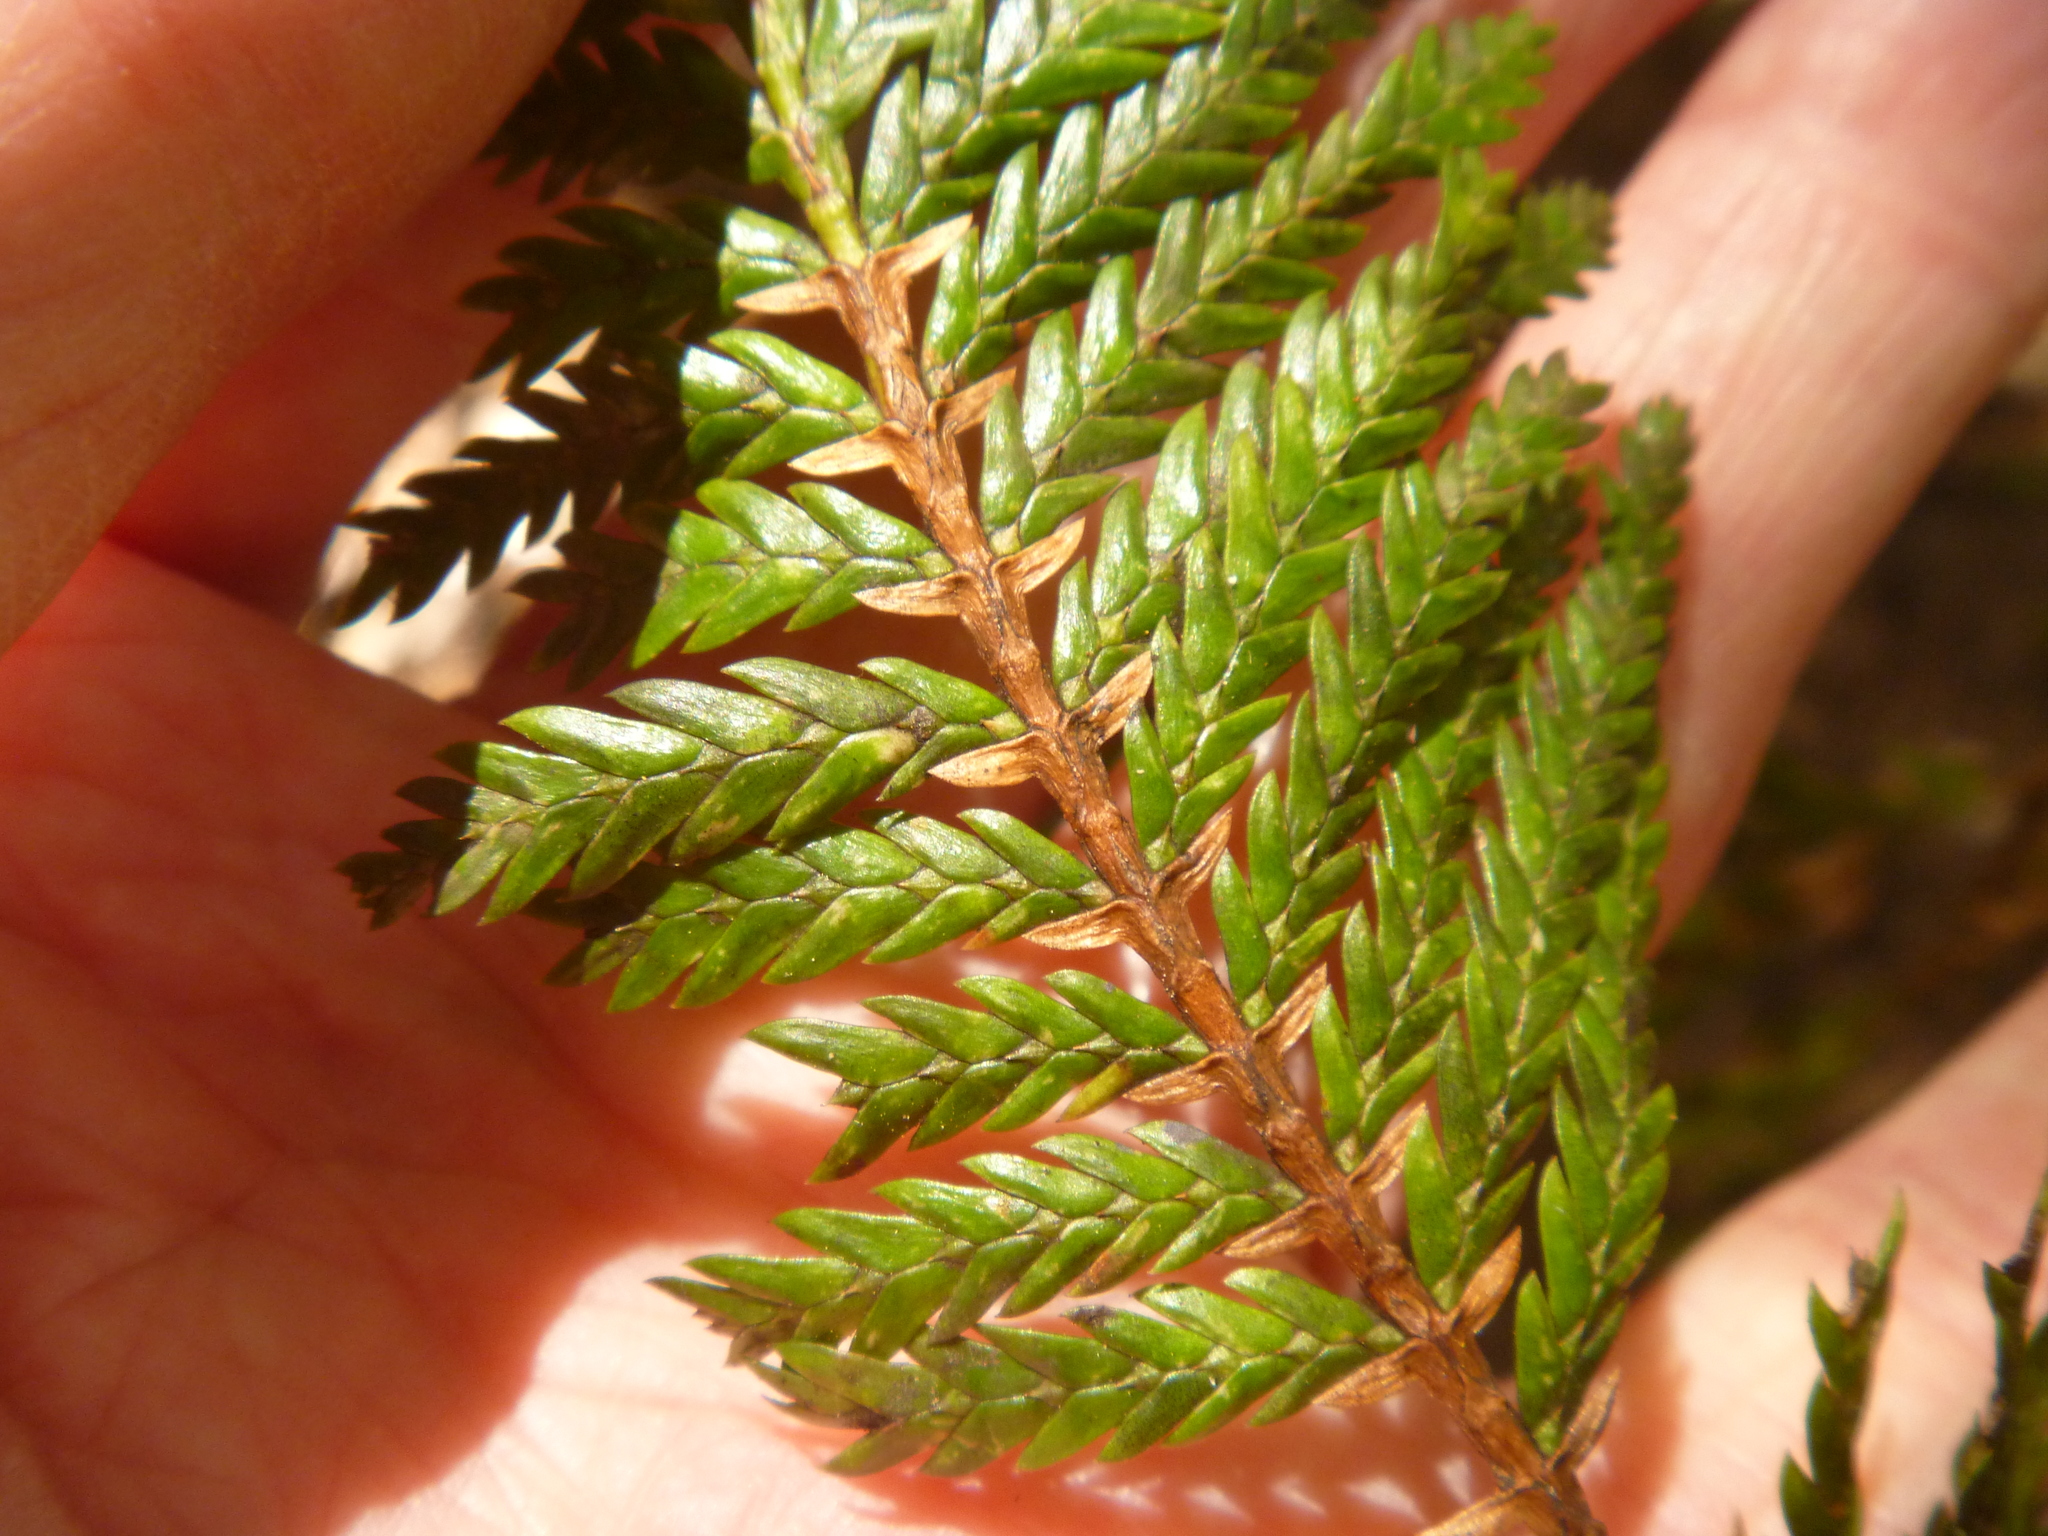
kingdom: Plantae
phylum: Tracheophyta
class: Pinopsida
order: Pinales
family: Cupressaceae
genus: Libocedrus
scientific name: Libocedrus plumosa
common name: New zealand cedar
